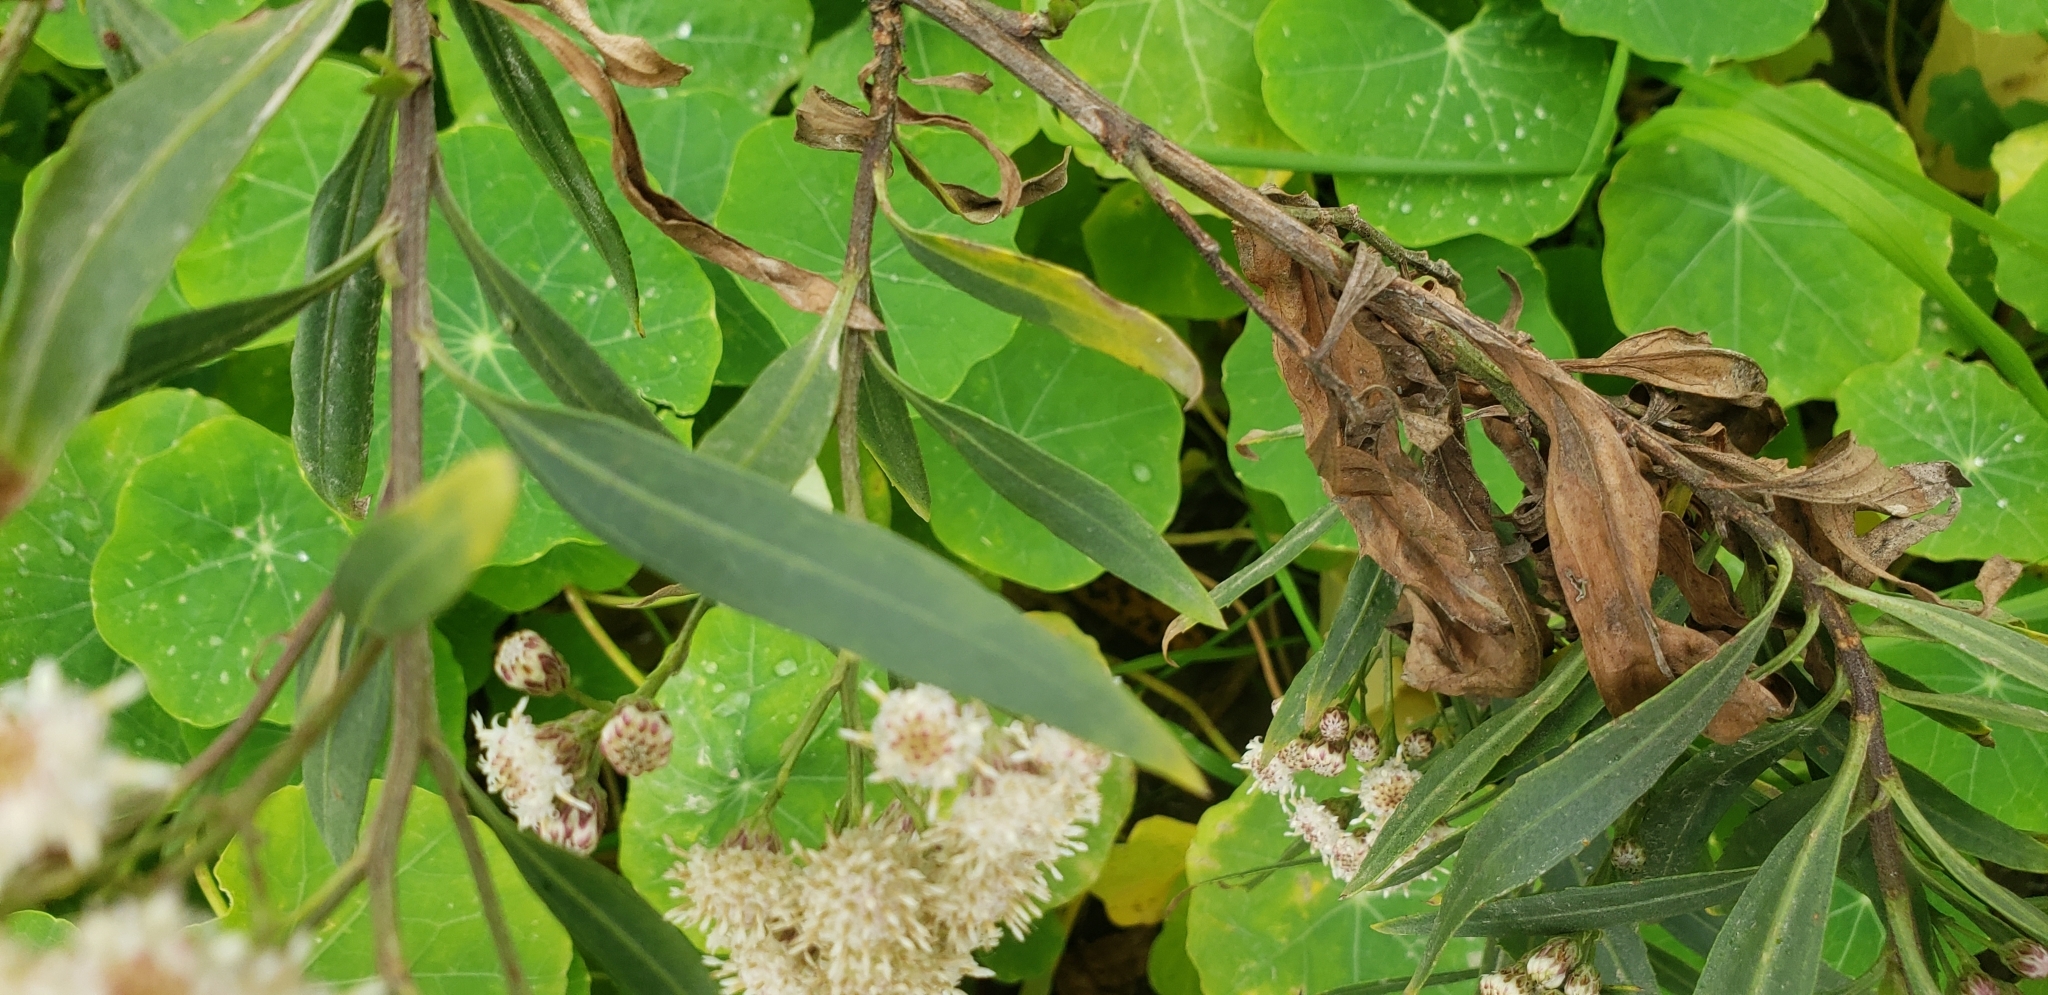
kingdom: Plantae
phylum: Tracheophyta
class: Magnoliopsida
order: Asterales
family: Asteraceae
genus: Baccharis
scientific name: Baccharis salicifolia
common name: Sticky baccharis
